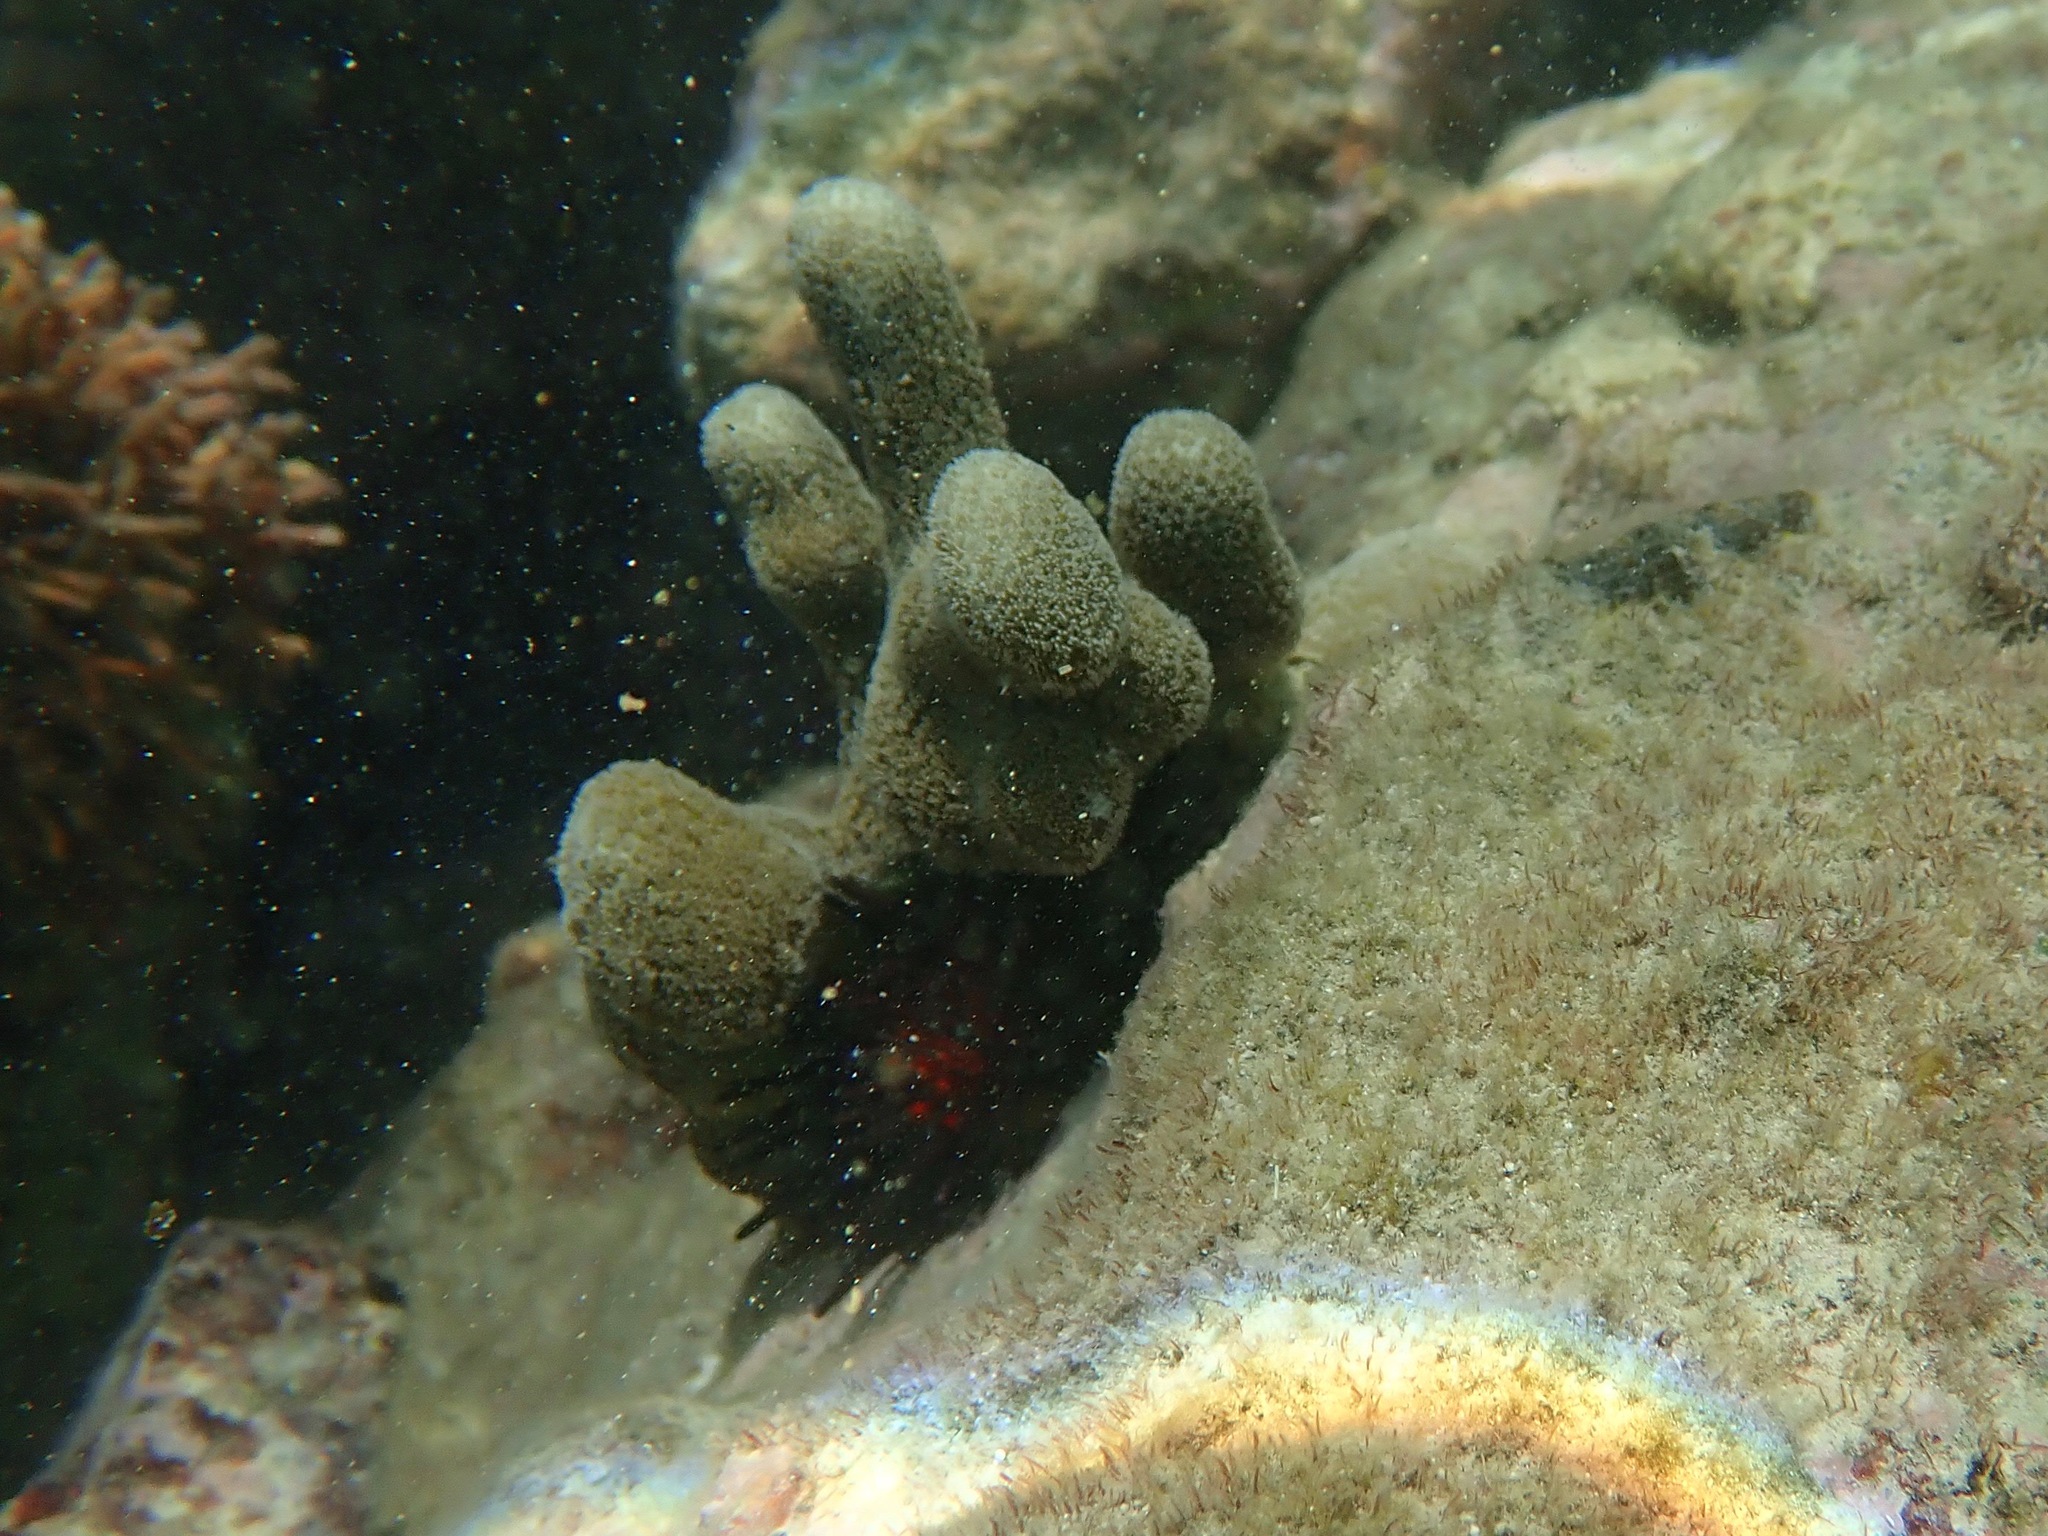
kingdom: Animalia
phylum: Echinodermata
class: Echinoidea
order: Camarodonta
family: Echinometridae
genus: Echinometra
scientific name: Echinometra lucunter
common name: Rock urchin
